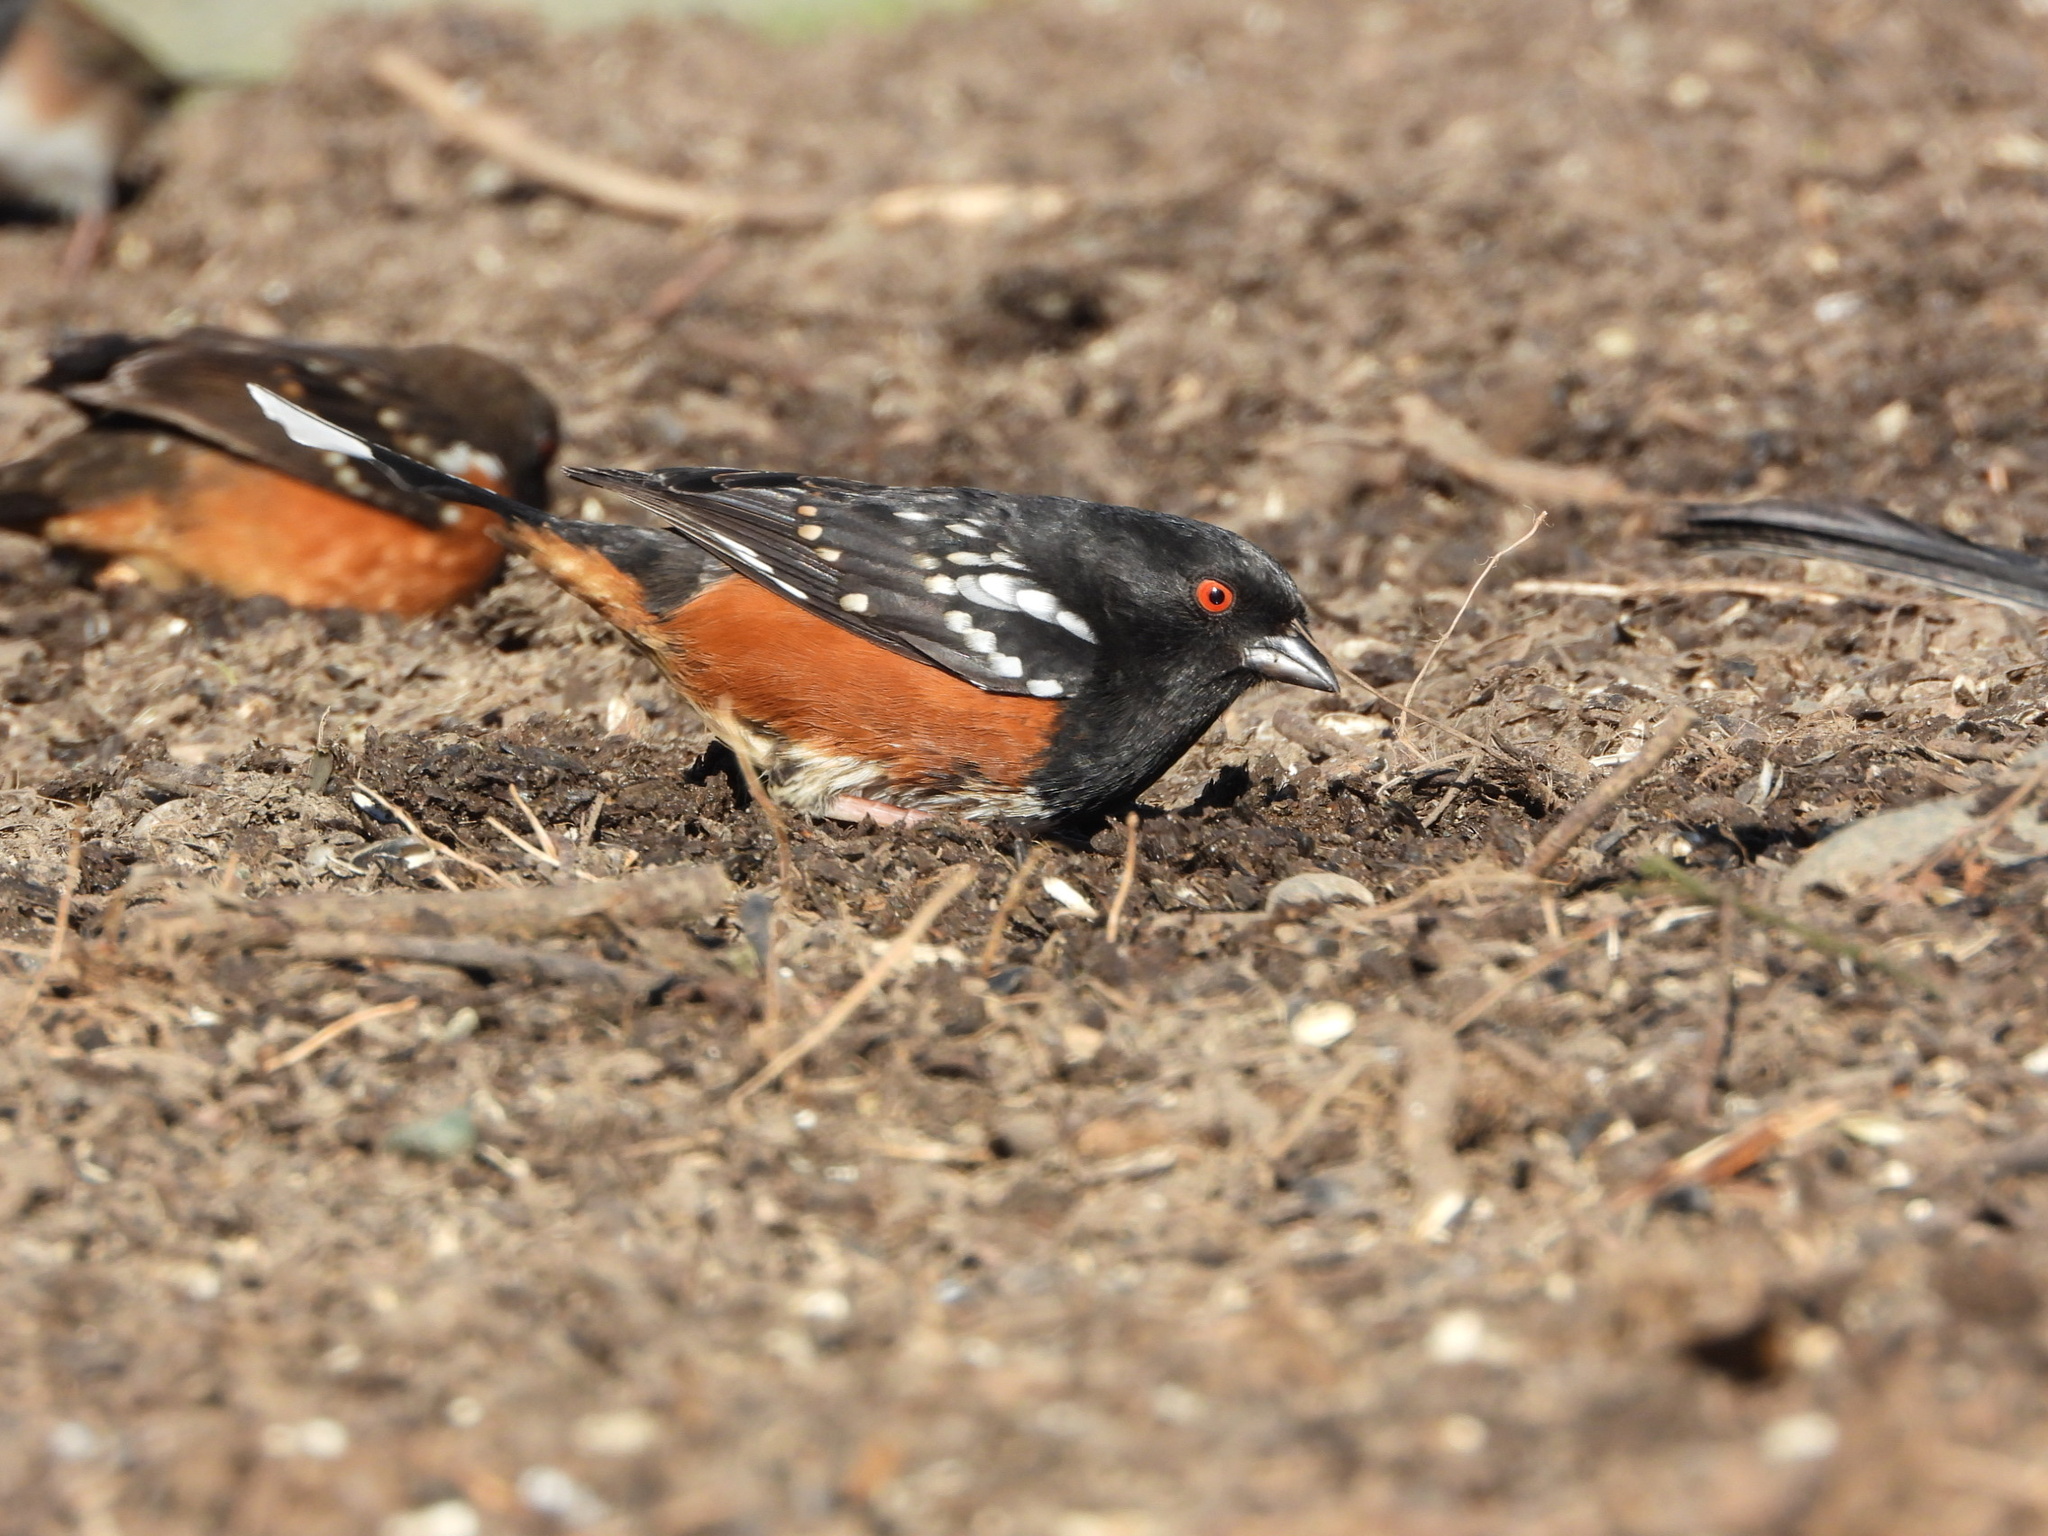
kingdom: Animalia
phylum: Chordata
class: Aves
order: Passeriformes
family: Passerellidae
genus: Pipilo
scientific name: Pipilo maculatus
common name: Spotted towhee
